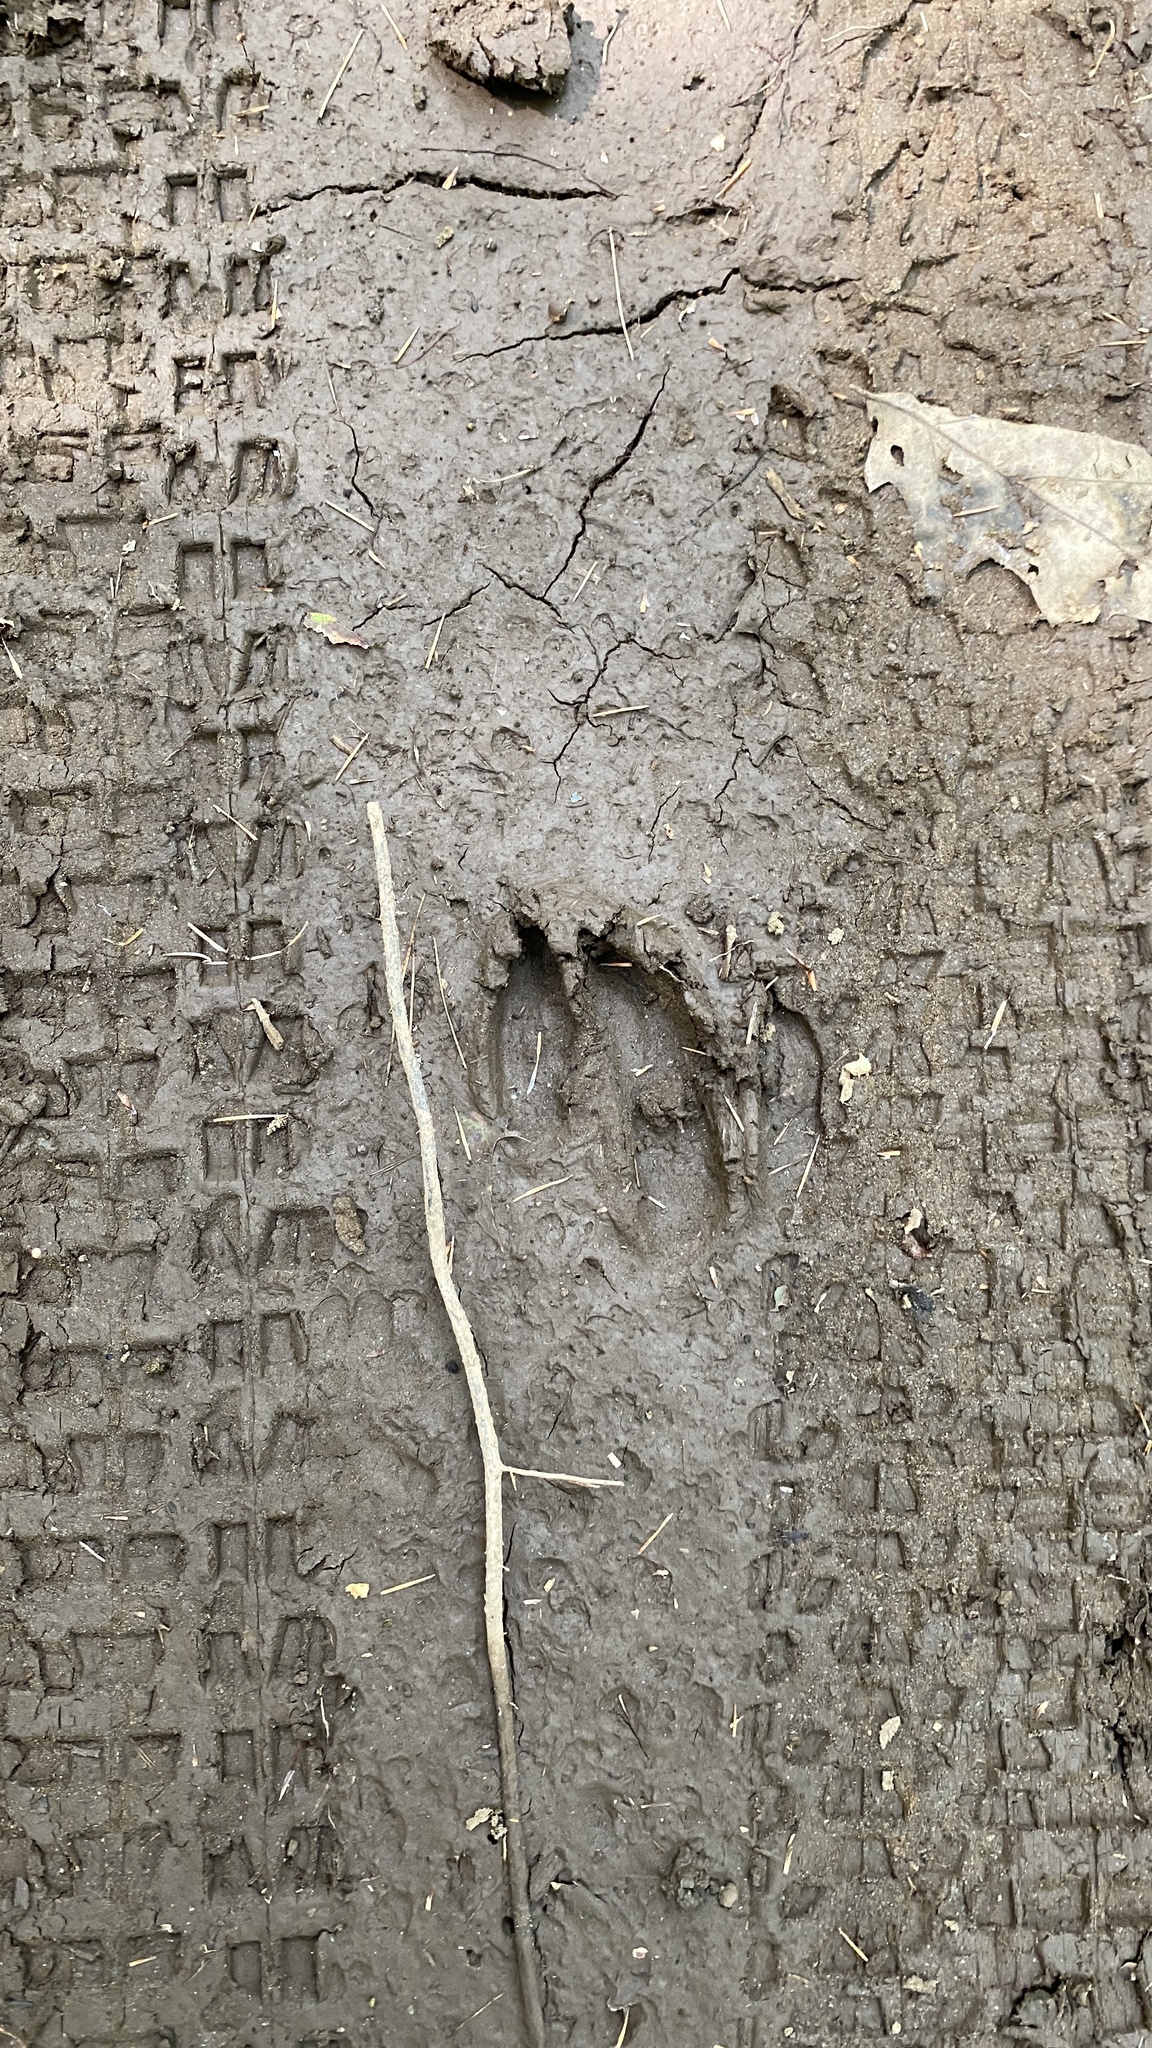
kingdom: Animalia
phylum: Chordata
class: Mammalia
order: Artiodactyla
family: Cervidae
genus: Odocoileus
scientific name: Odocoileus virginianus
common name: White-tailed deer
